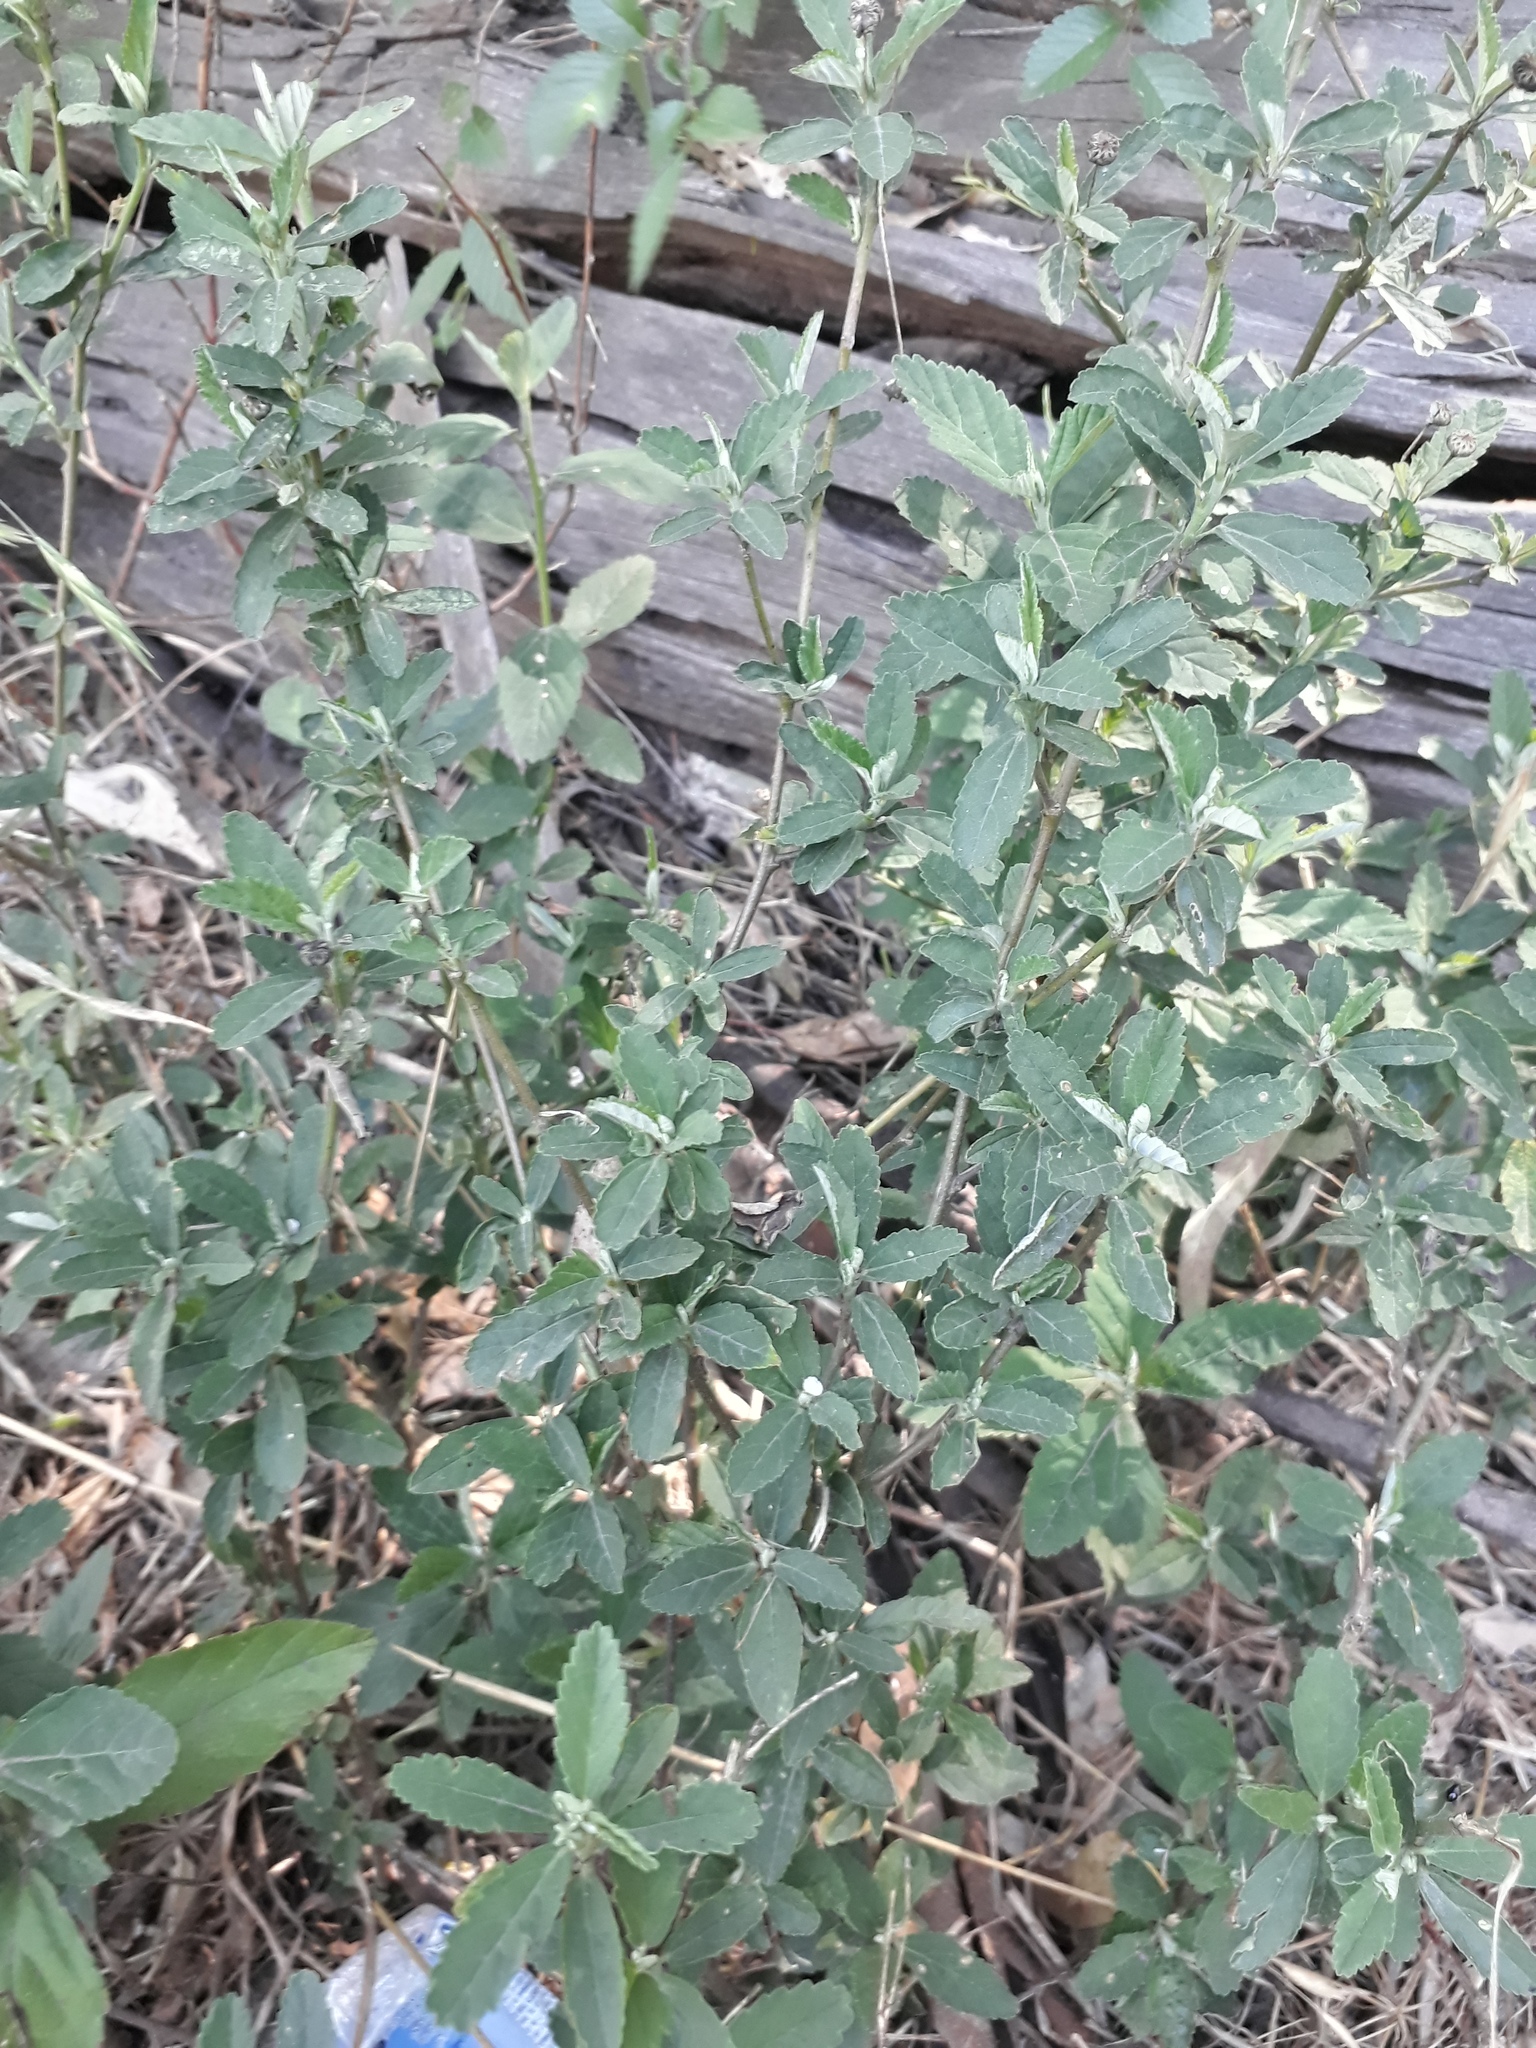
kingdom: Plantae
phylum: Tracheophyta
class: Magnoliopsida
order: Lamiales
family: Verbenaceae
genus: Phyla
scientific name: Phyla nodiflora
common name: Frogfruit
